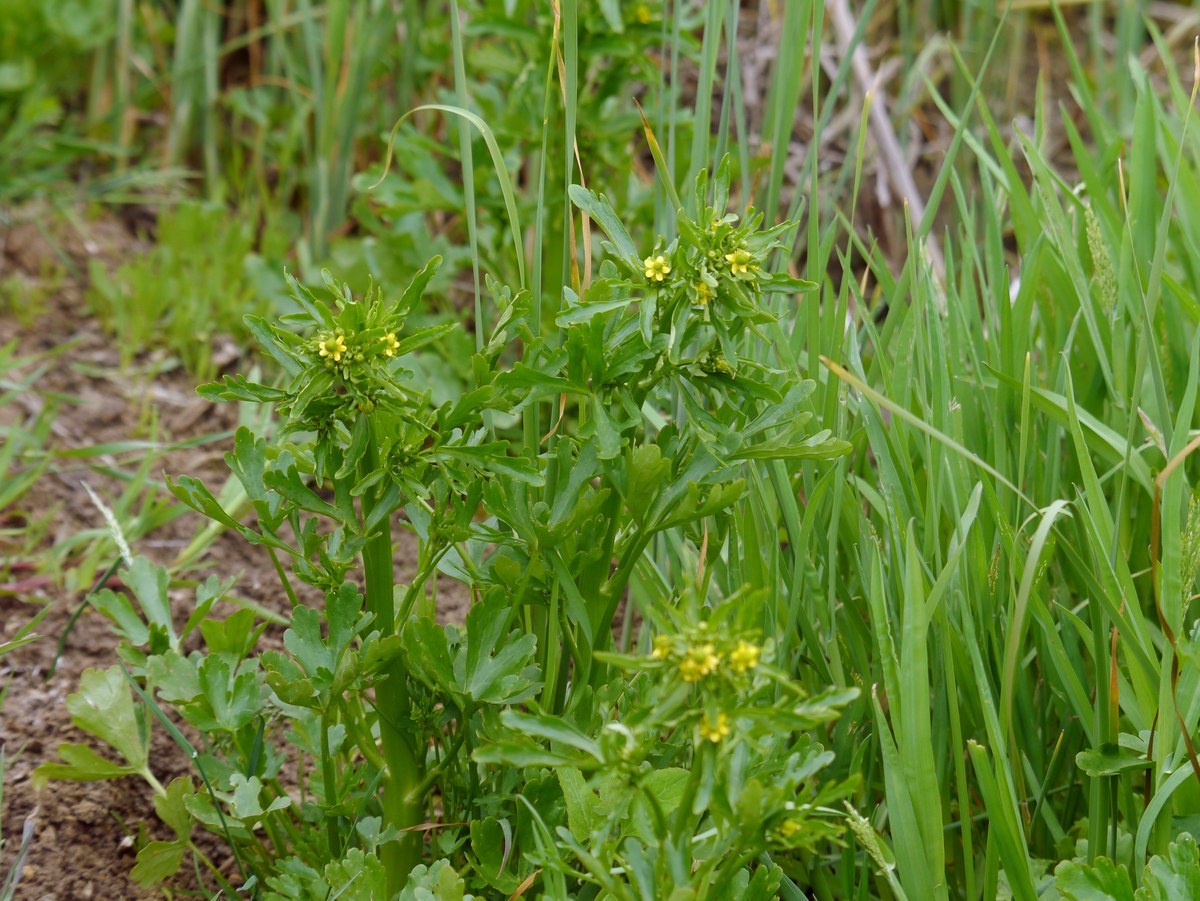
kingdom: Plantae
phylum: Tracheophyta
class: Magnoliopsida
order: Ranunculales
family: Ranunculaceae
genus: Ranunculus
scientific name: Ranunculus sceleratus
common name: Celery-leaved buttercup
